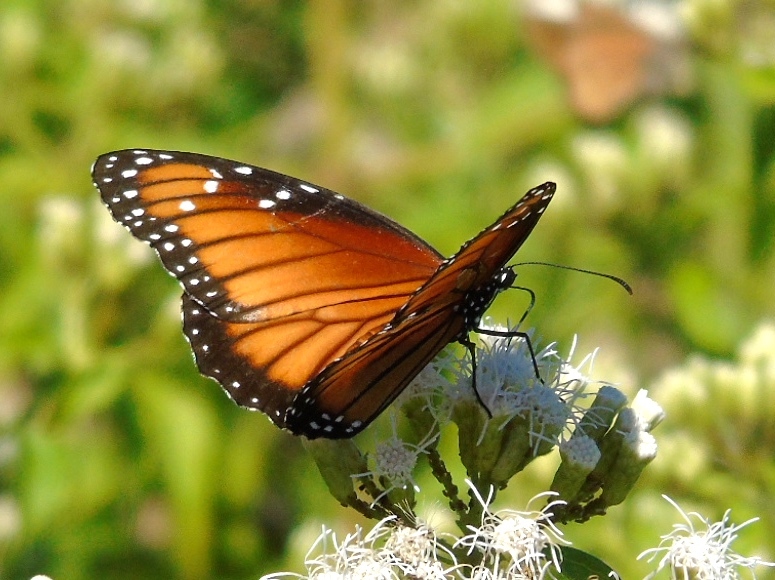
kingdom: Animalia
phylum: Arthropoda
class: Insecta
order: Lepidoptera
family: Nymphalidae
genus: Danaus
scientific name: Danaus eresimus
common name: Soldier
